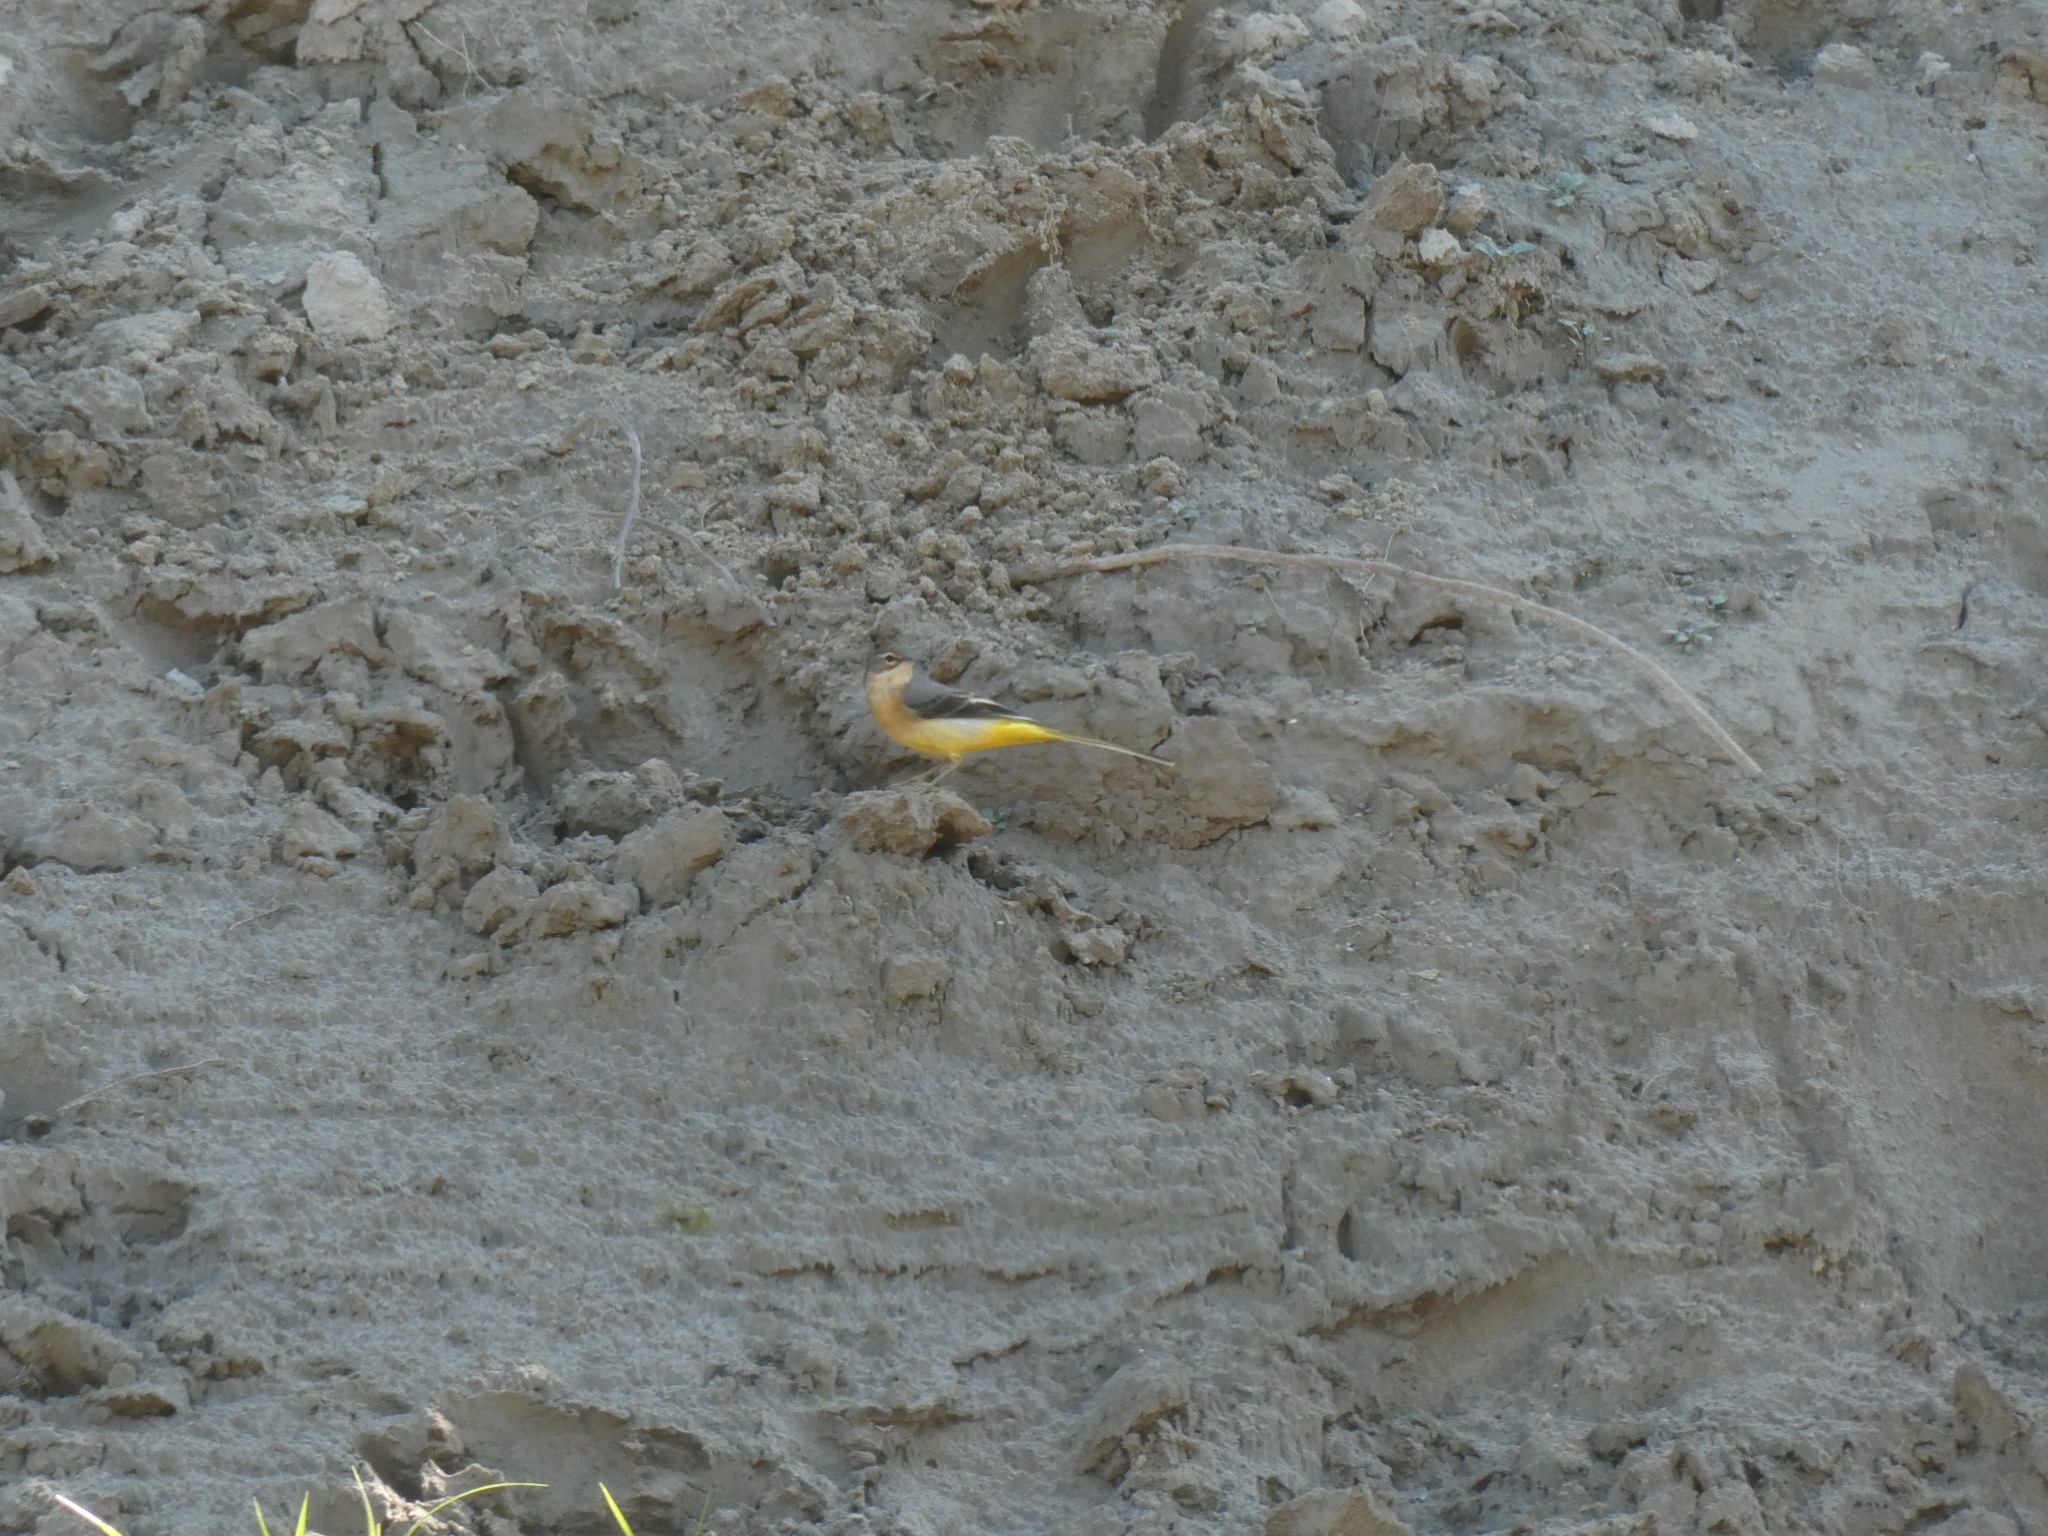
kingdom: Animalia
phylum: Chordata
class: Aves
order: Passeriformes
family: Motacillidae
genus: Motacilla
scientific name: Motacilla cinerea
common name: Grey wagtail
